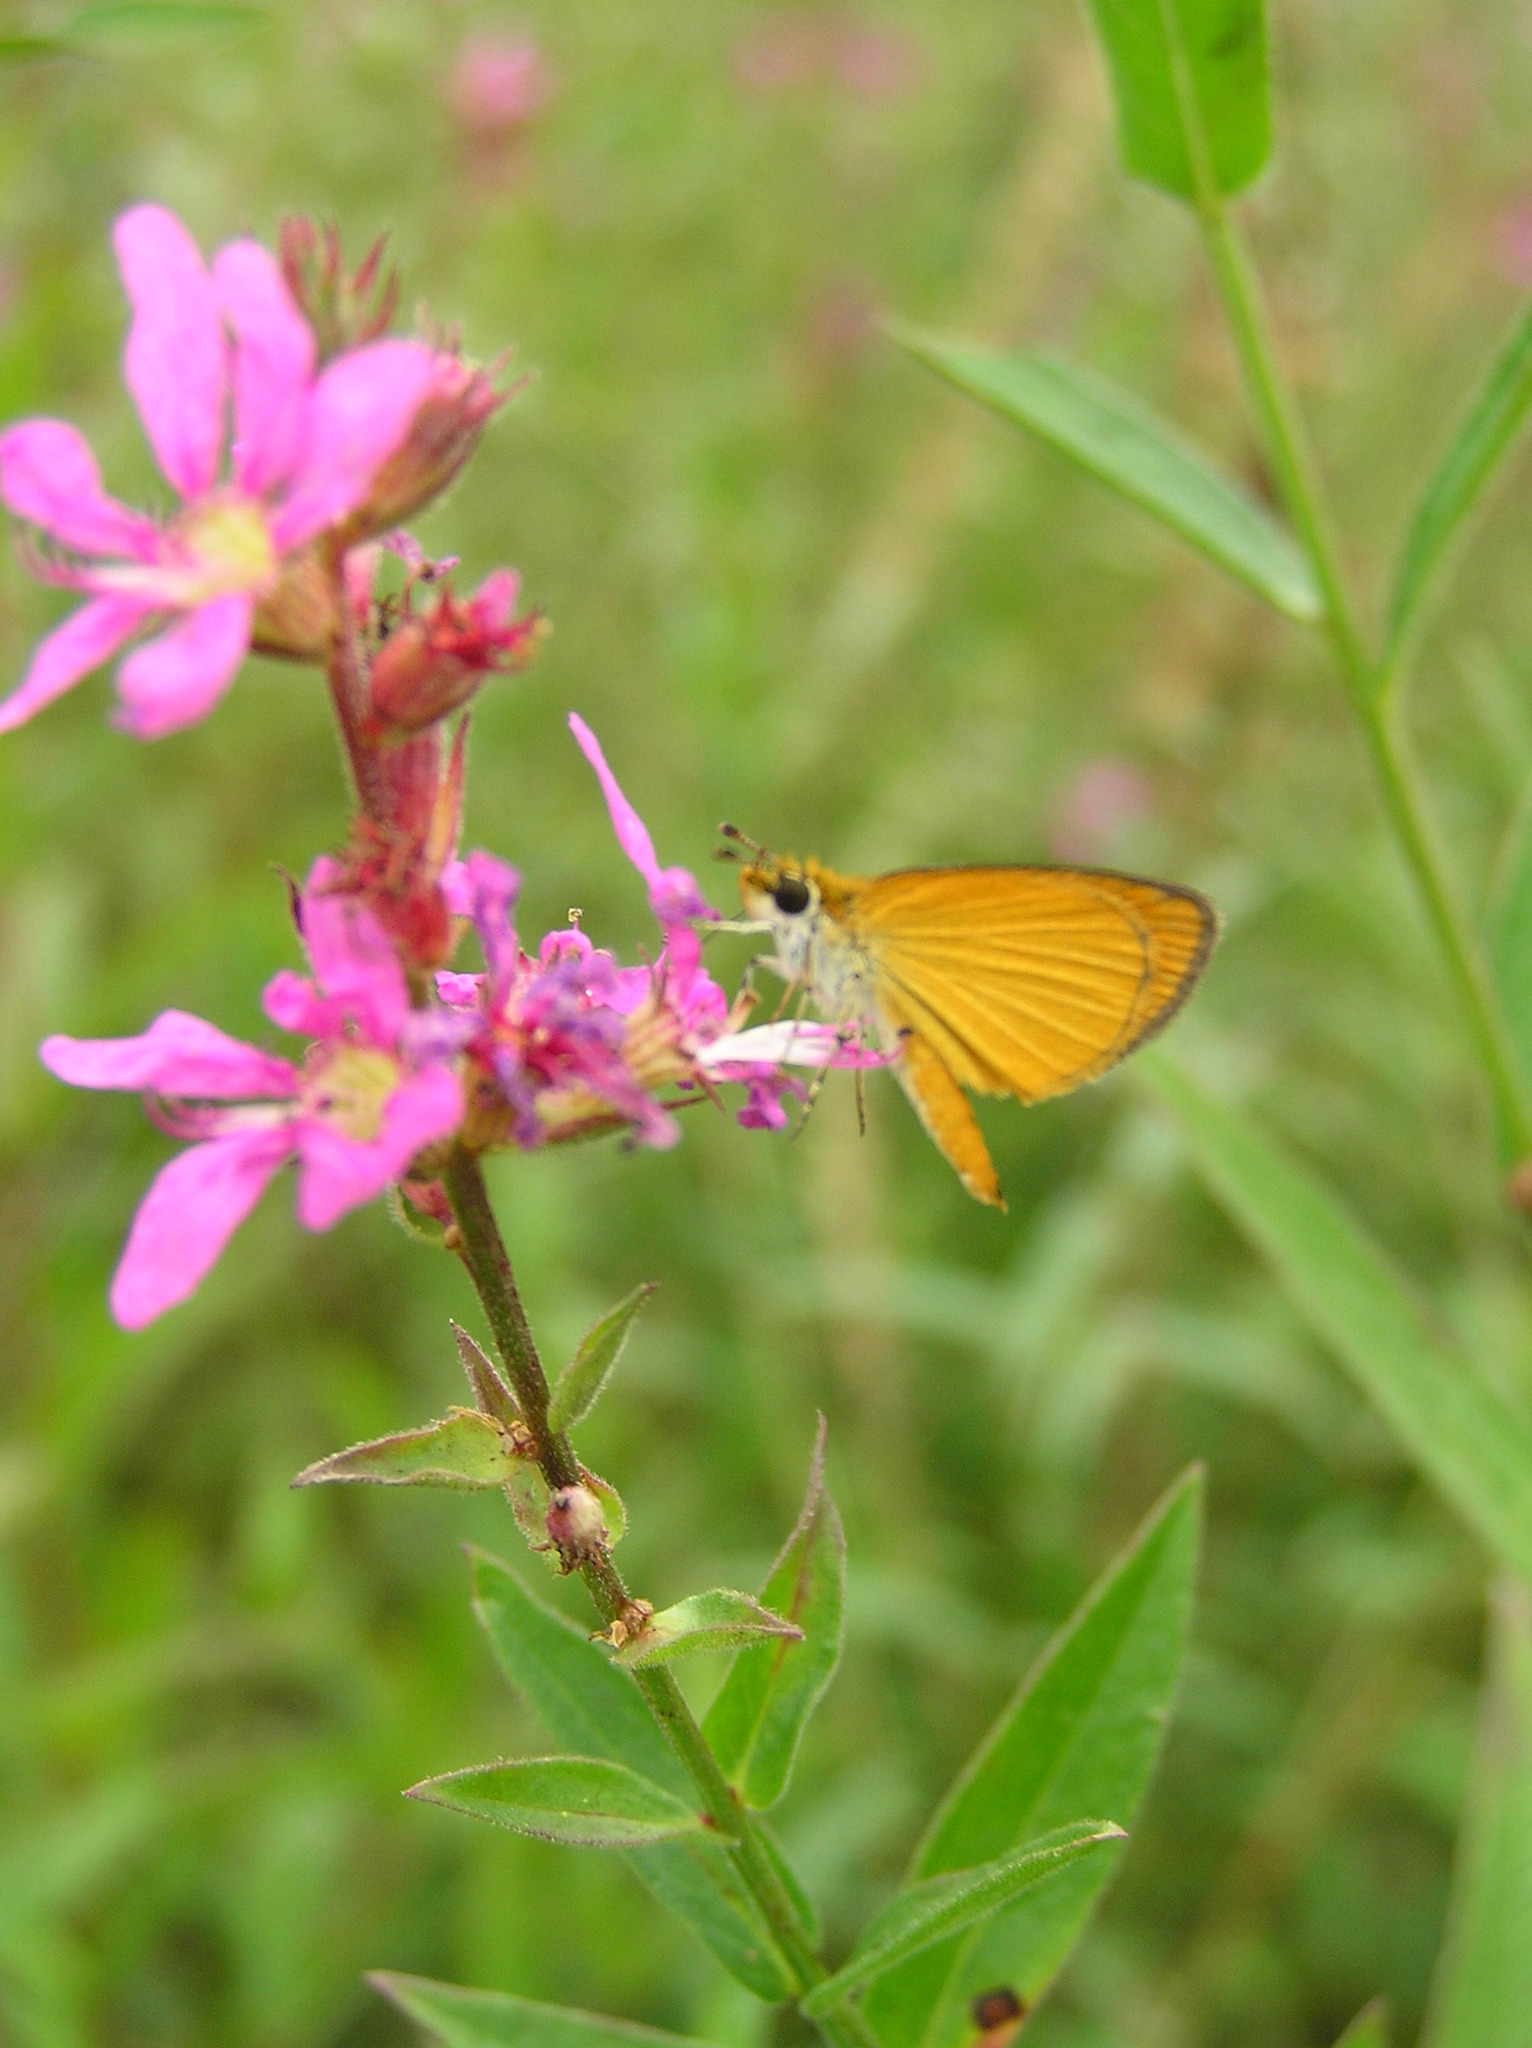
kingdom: Animalia
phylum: Arthropoda
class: Insecta
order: Lepidoptera
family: Hesperiidae
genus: Ancyloxypha
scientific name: Ancyloxypha numitor
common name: Least skipper
